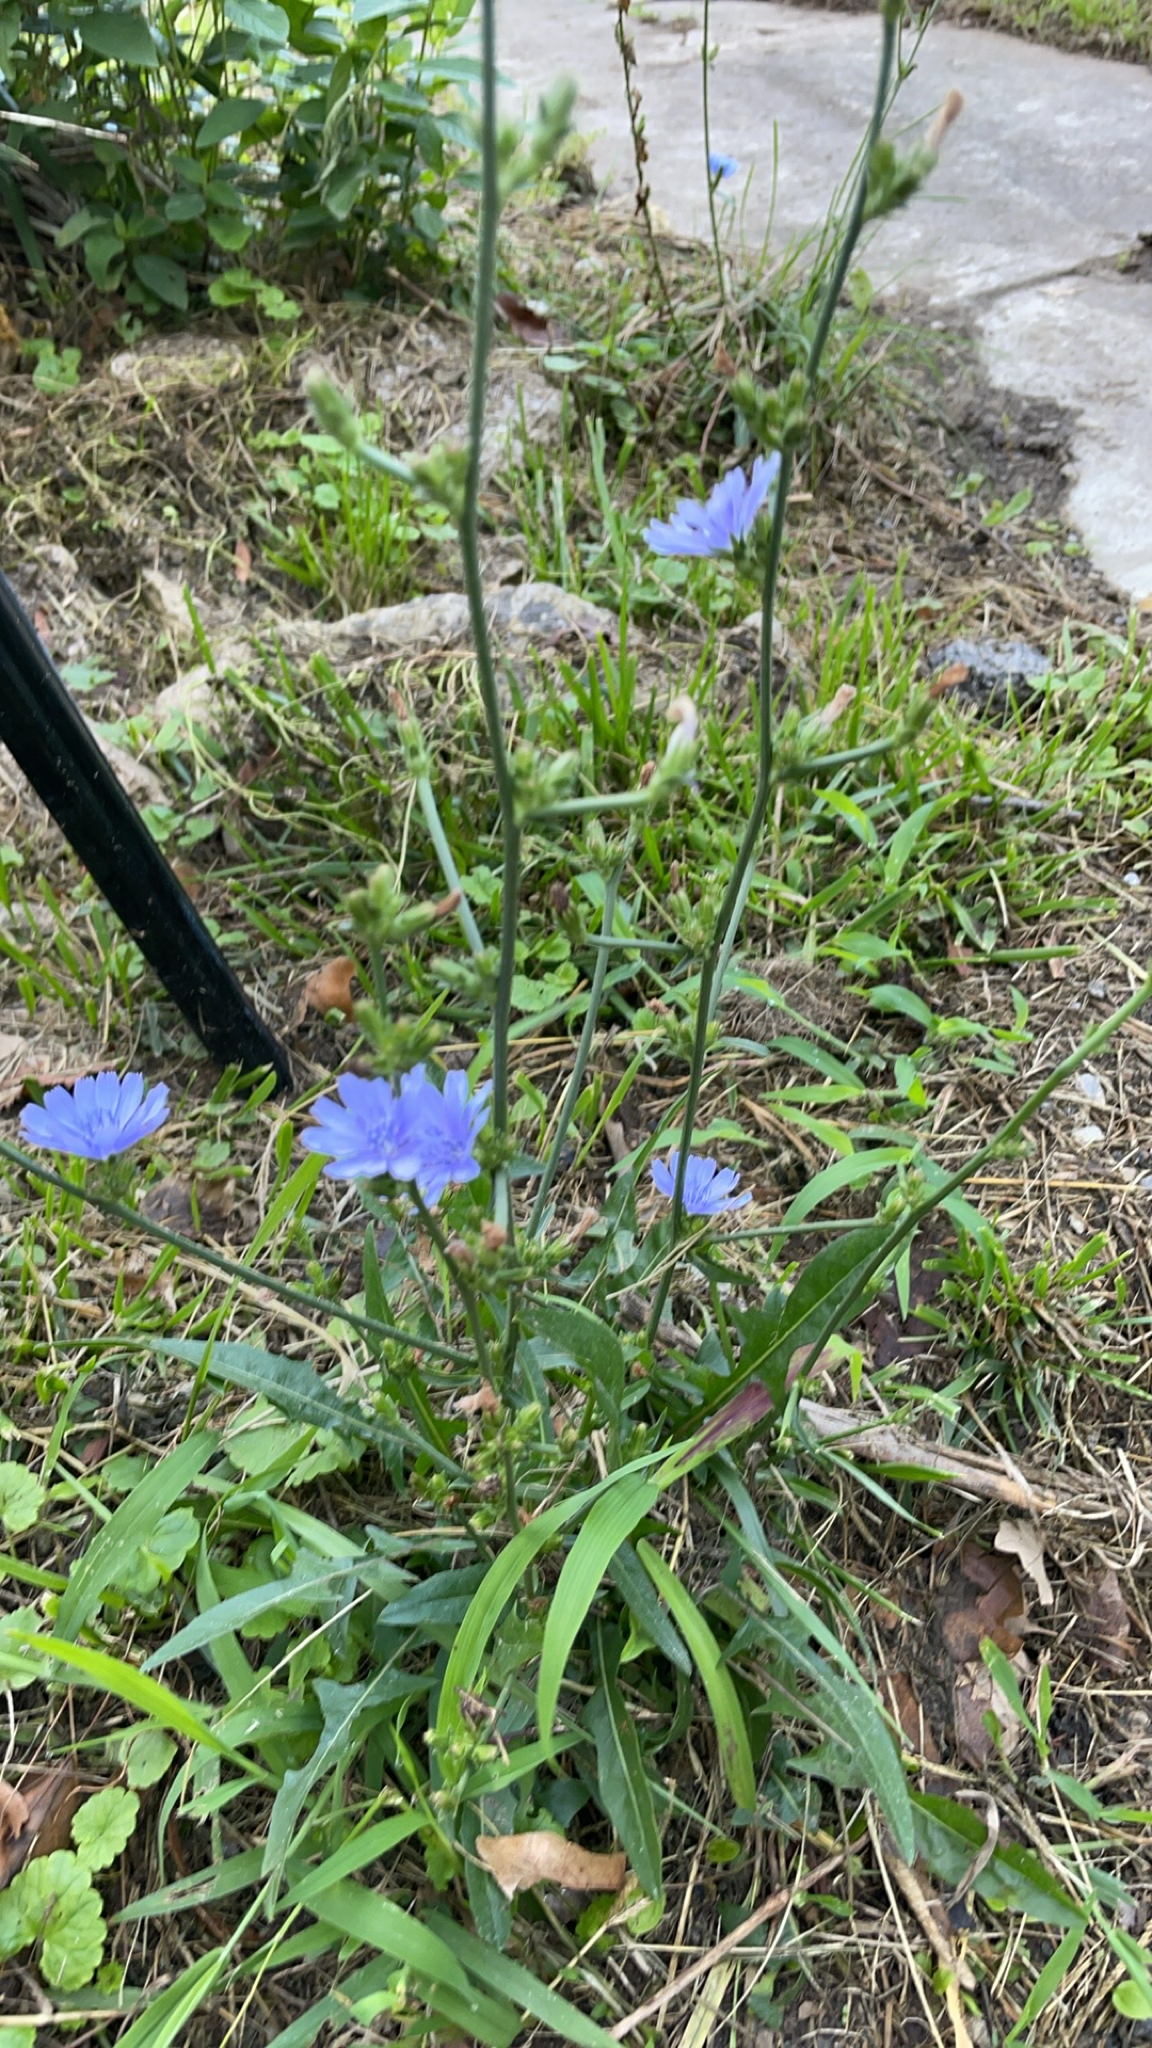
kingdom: Plantae
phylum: Tracheophyta
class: Magnoliopsida
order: Asterales
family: Asteraceae
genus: Cichorium
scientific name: Cichorium intybus
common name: Chicory
